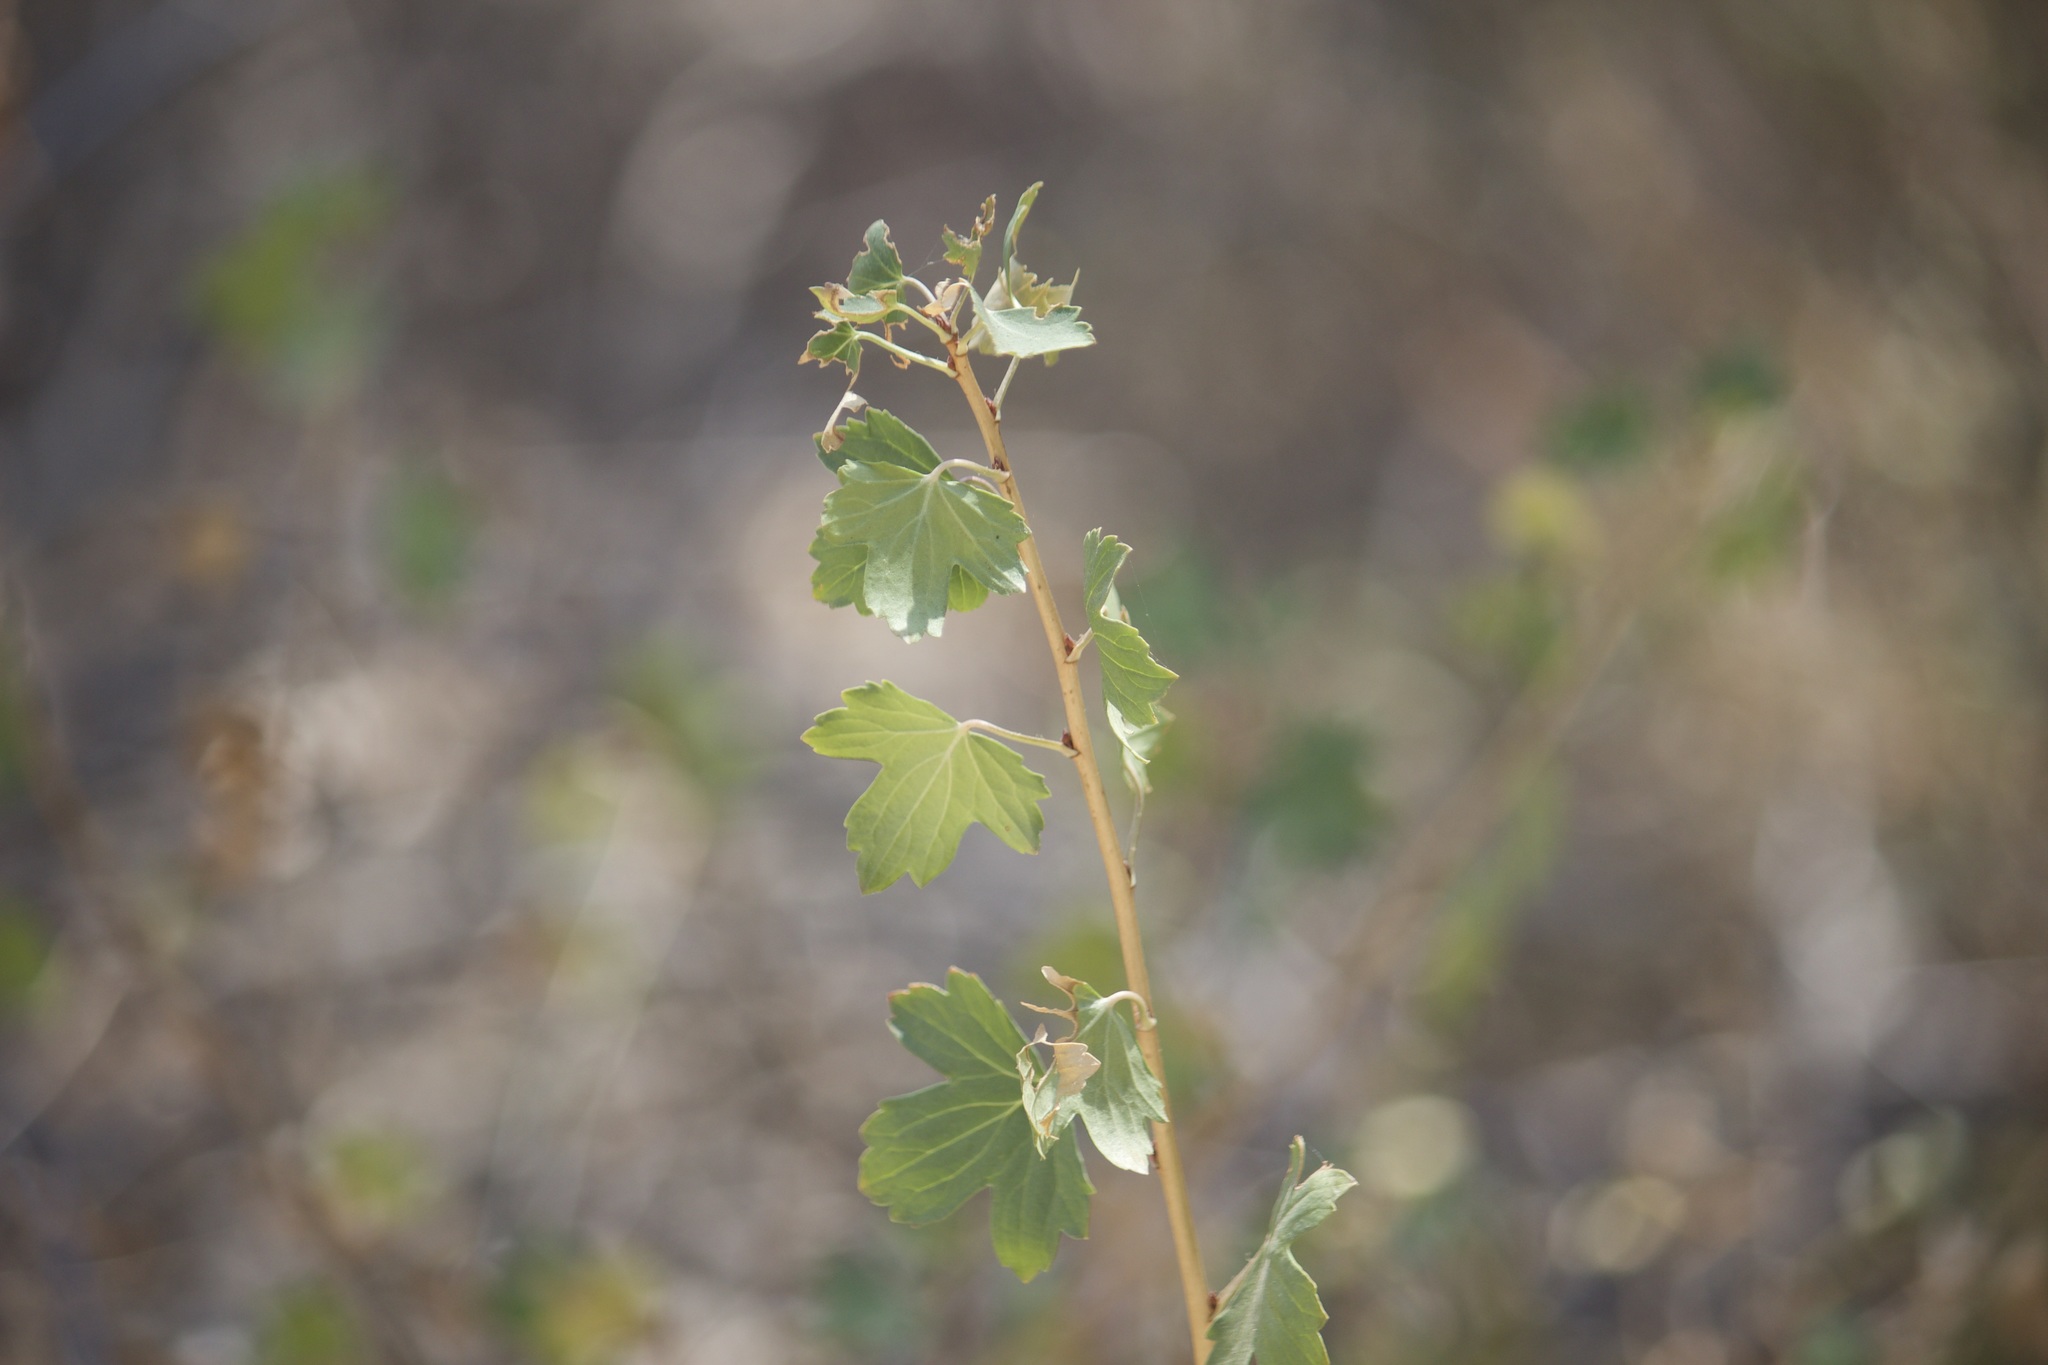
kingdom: Plantae
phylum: Tracheophyta
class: Magnoliopsida
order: Saxifragales
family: Grossulariaceae
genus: Ribes
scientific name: Ribes aureum
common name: Golden currant
